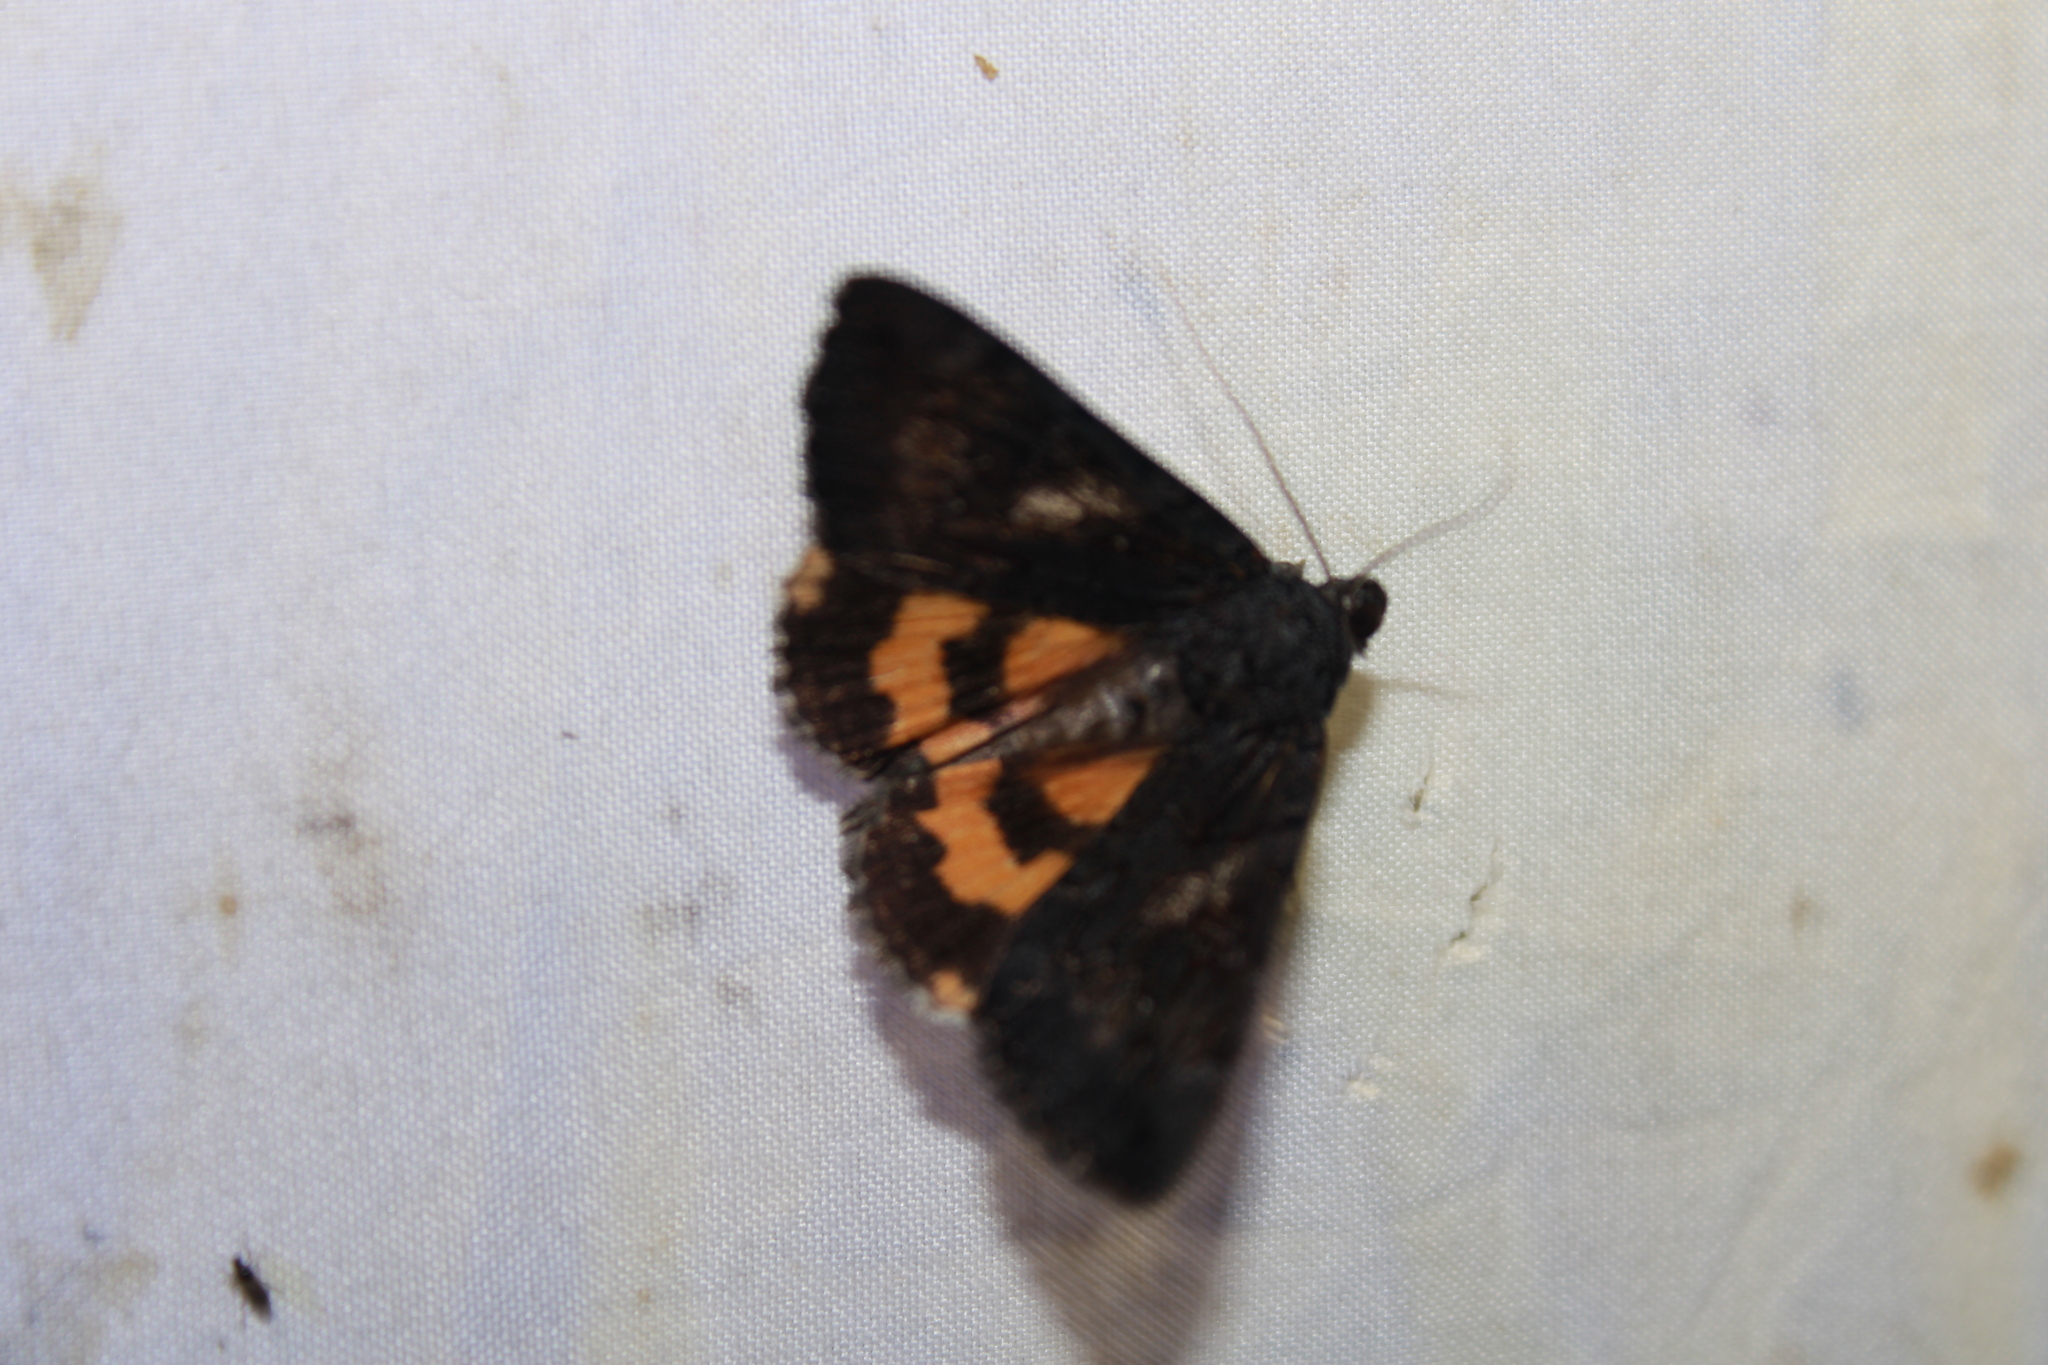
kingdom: Animalia
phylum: Arthropoda
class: Insecta
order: Lepidoptera
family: Erebidae
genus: Catocala
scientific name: Catocala antinympha
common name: Sweetfern underwing
